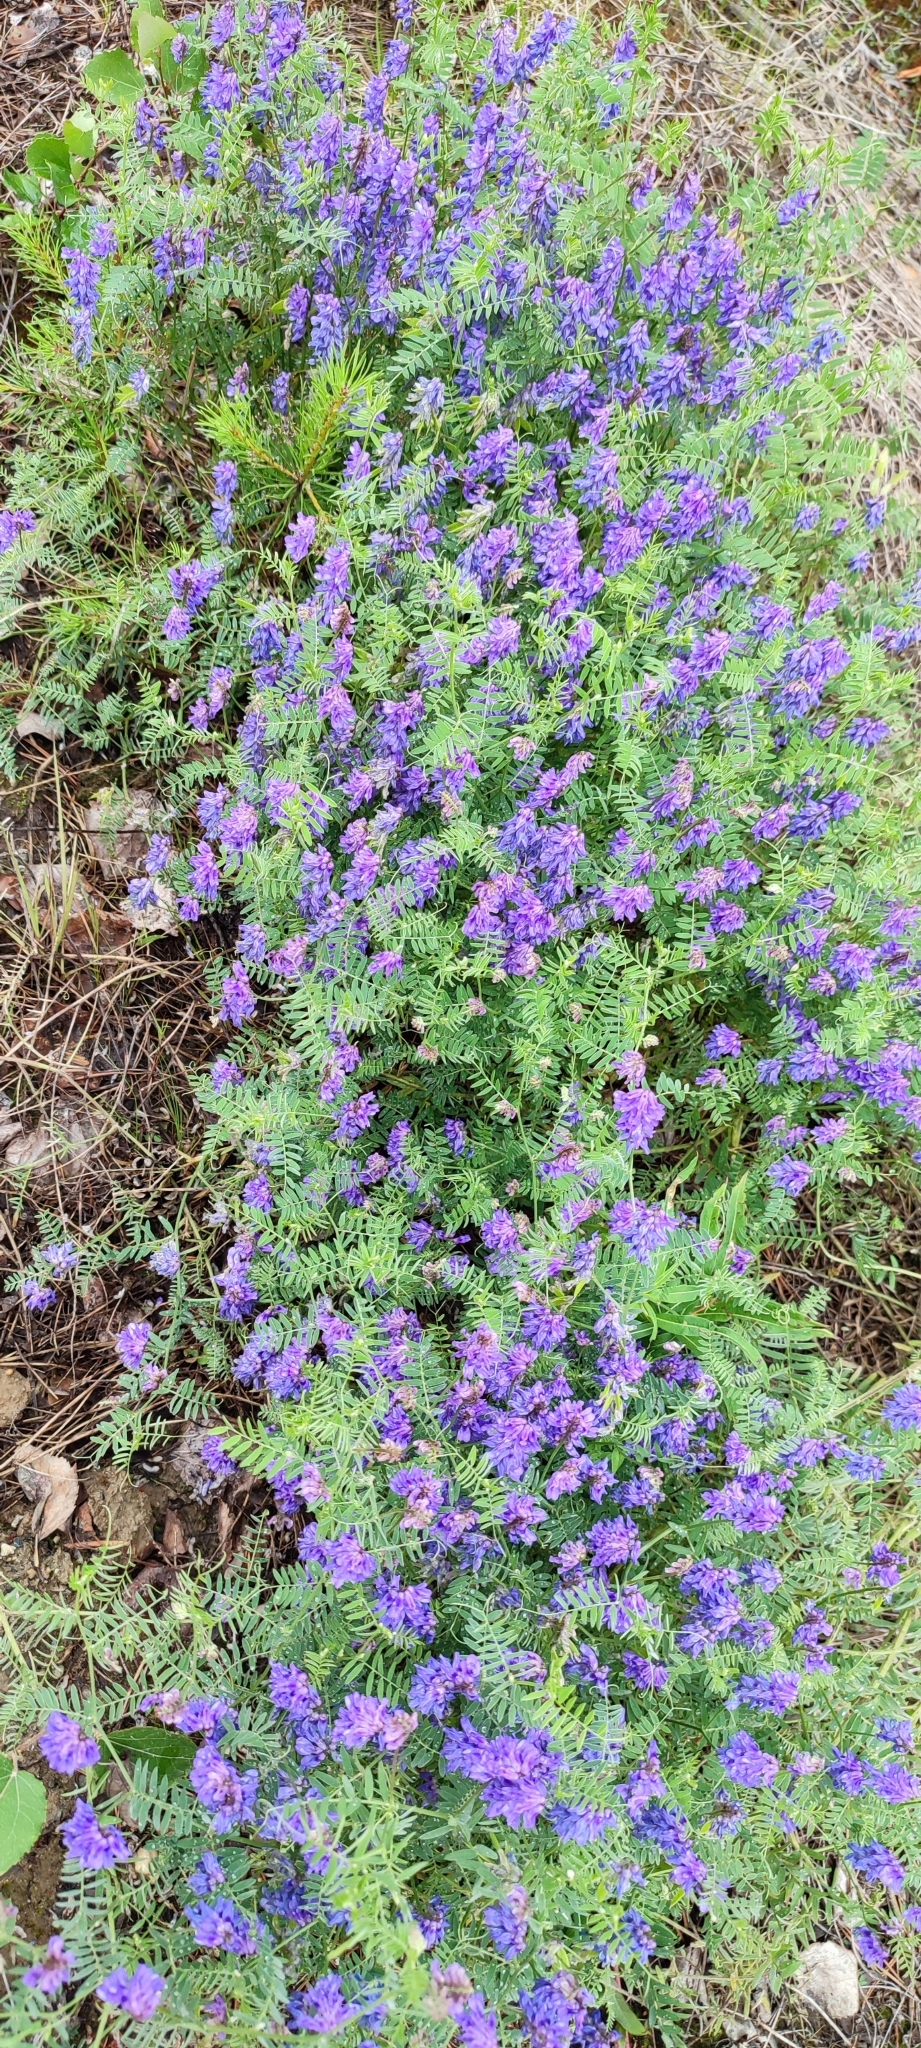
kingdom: Plantae
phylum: Tracheophyta
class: Magnoliopsida
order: Fabales
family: Fabaceae
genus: Vicia
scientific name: Vicia cracca
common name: Bird vetch
